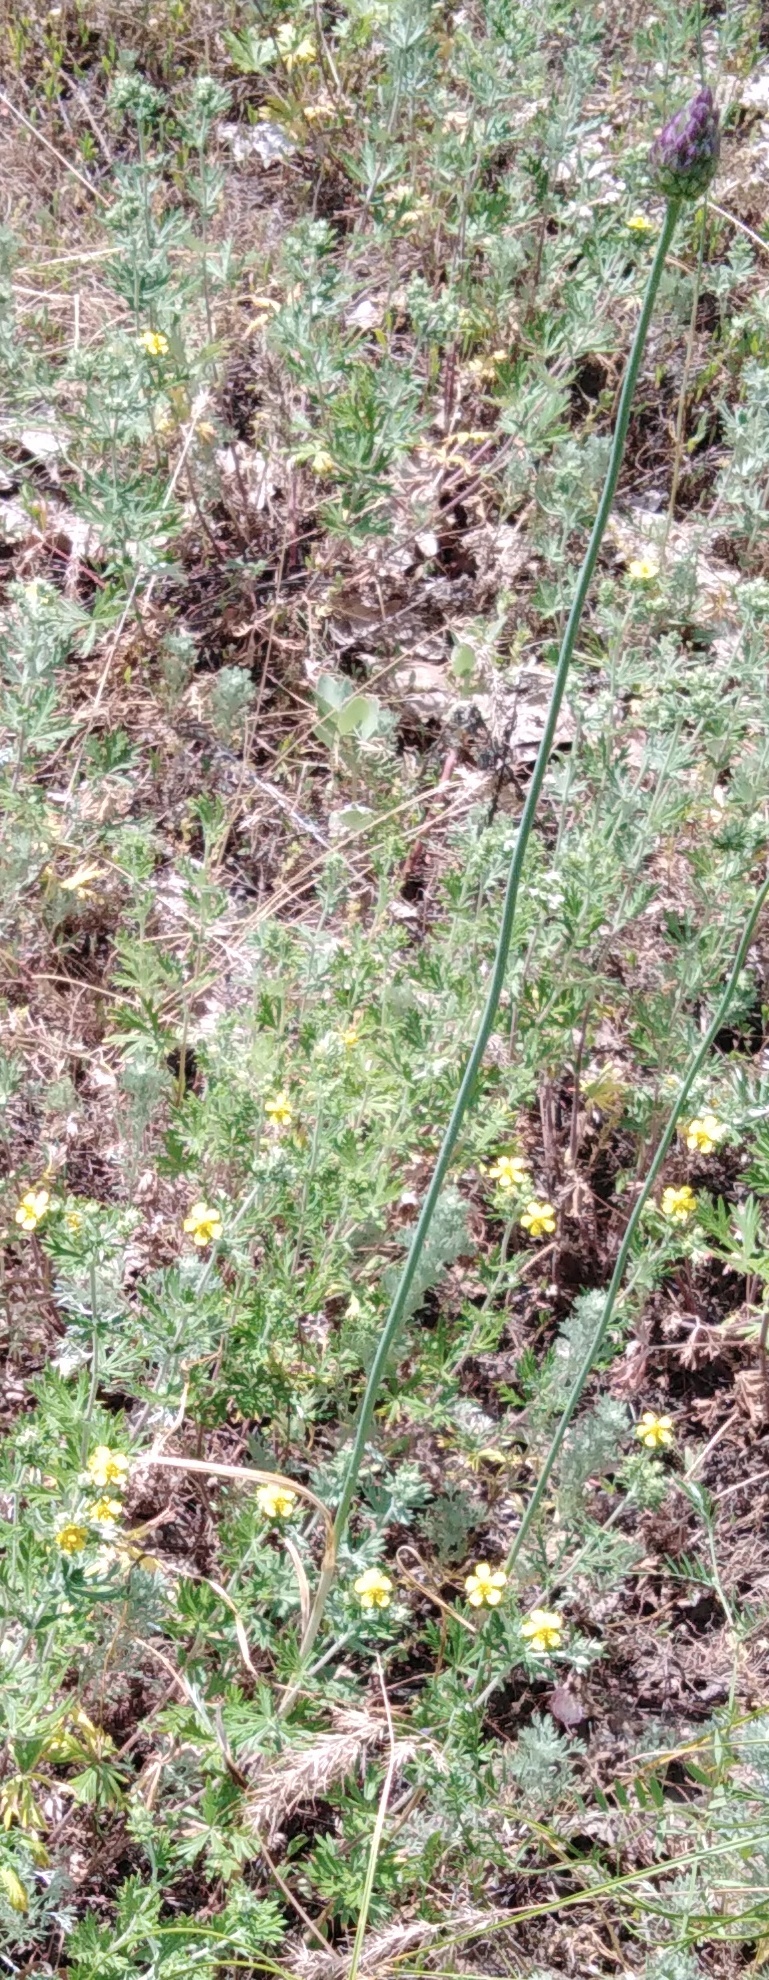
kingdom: Plantae
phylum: Tracheophyta
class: Liliopsida
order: Asparagales
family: Amaryllidaceae
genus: Allium
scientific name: Allium rotundum
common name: Sand leek
